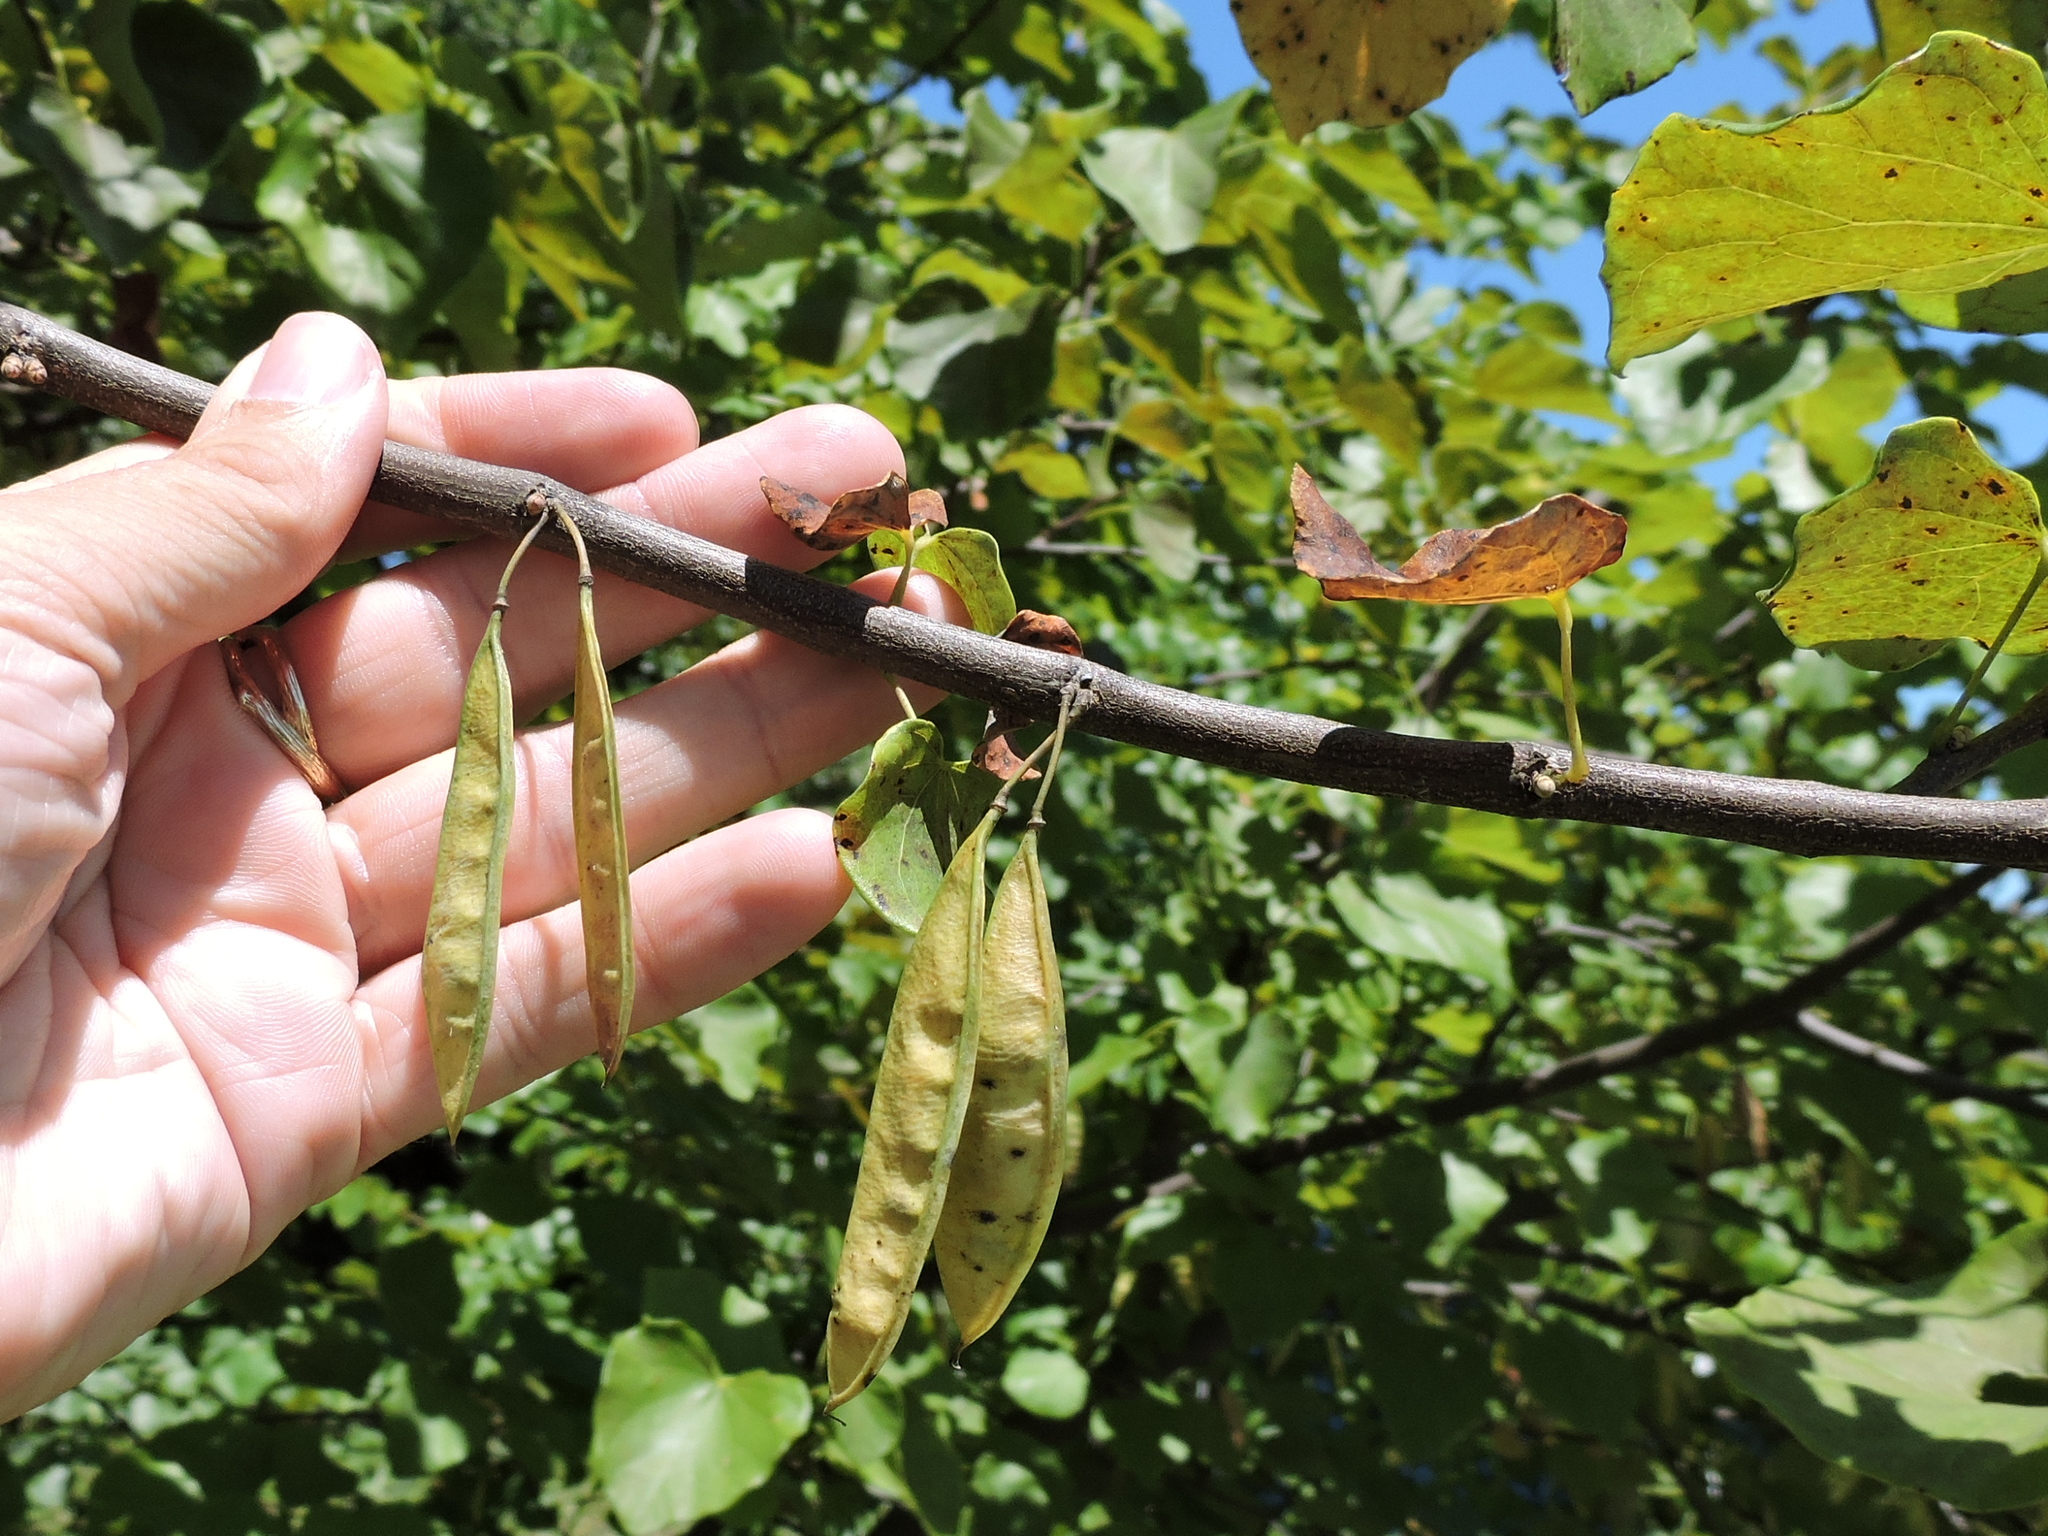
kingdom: Plantae
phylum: Tracheophyta
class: Magnoliopsida
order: Fabales
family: Fabaceae
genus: Cercis
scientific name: Cercis canadensis
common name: Eastern redbud
